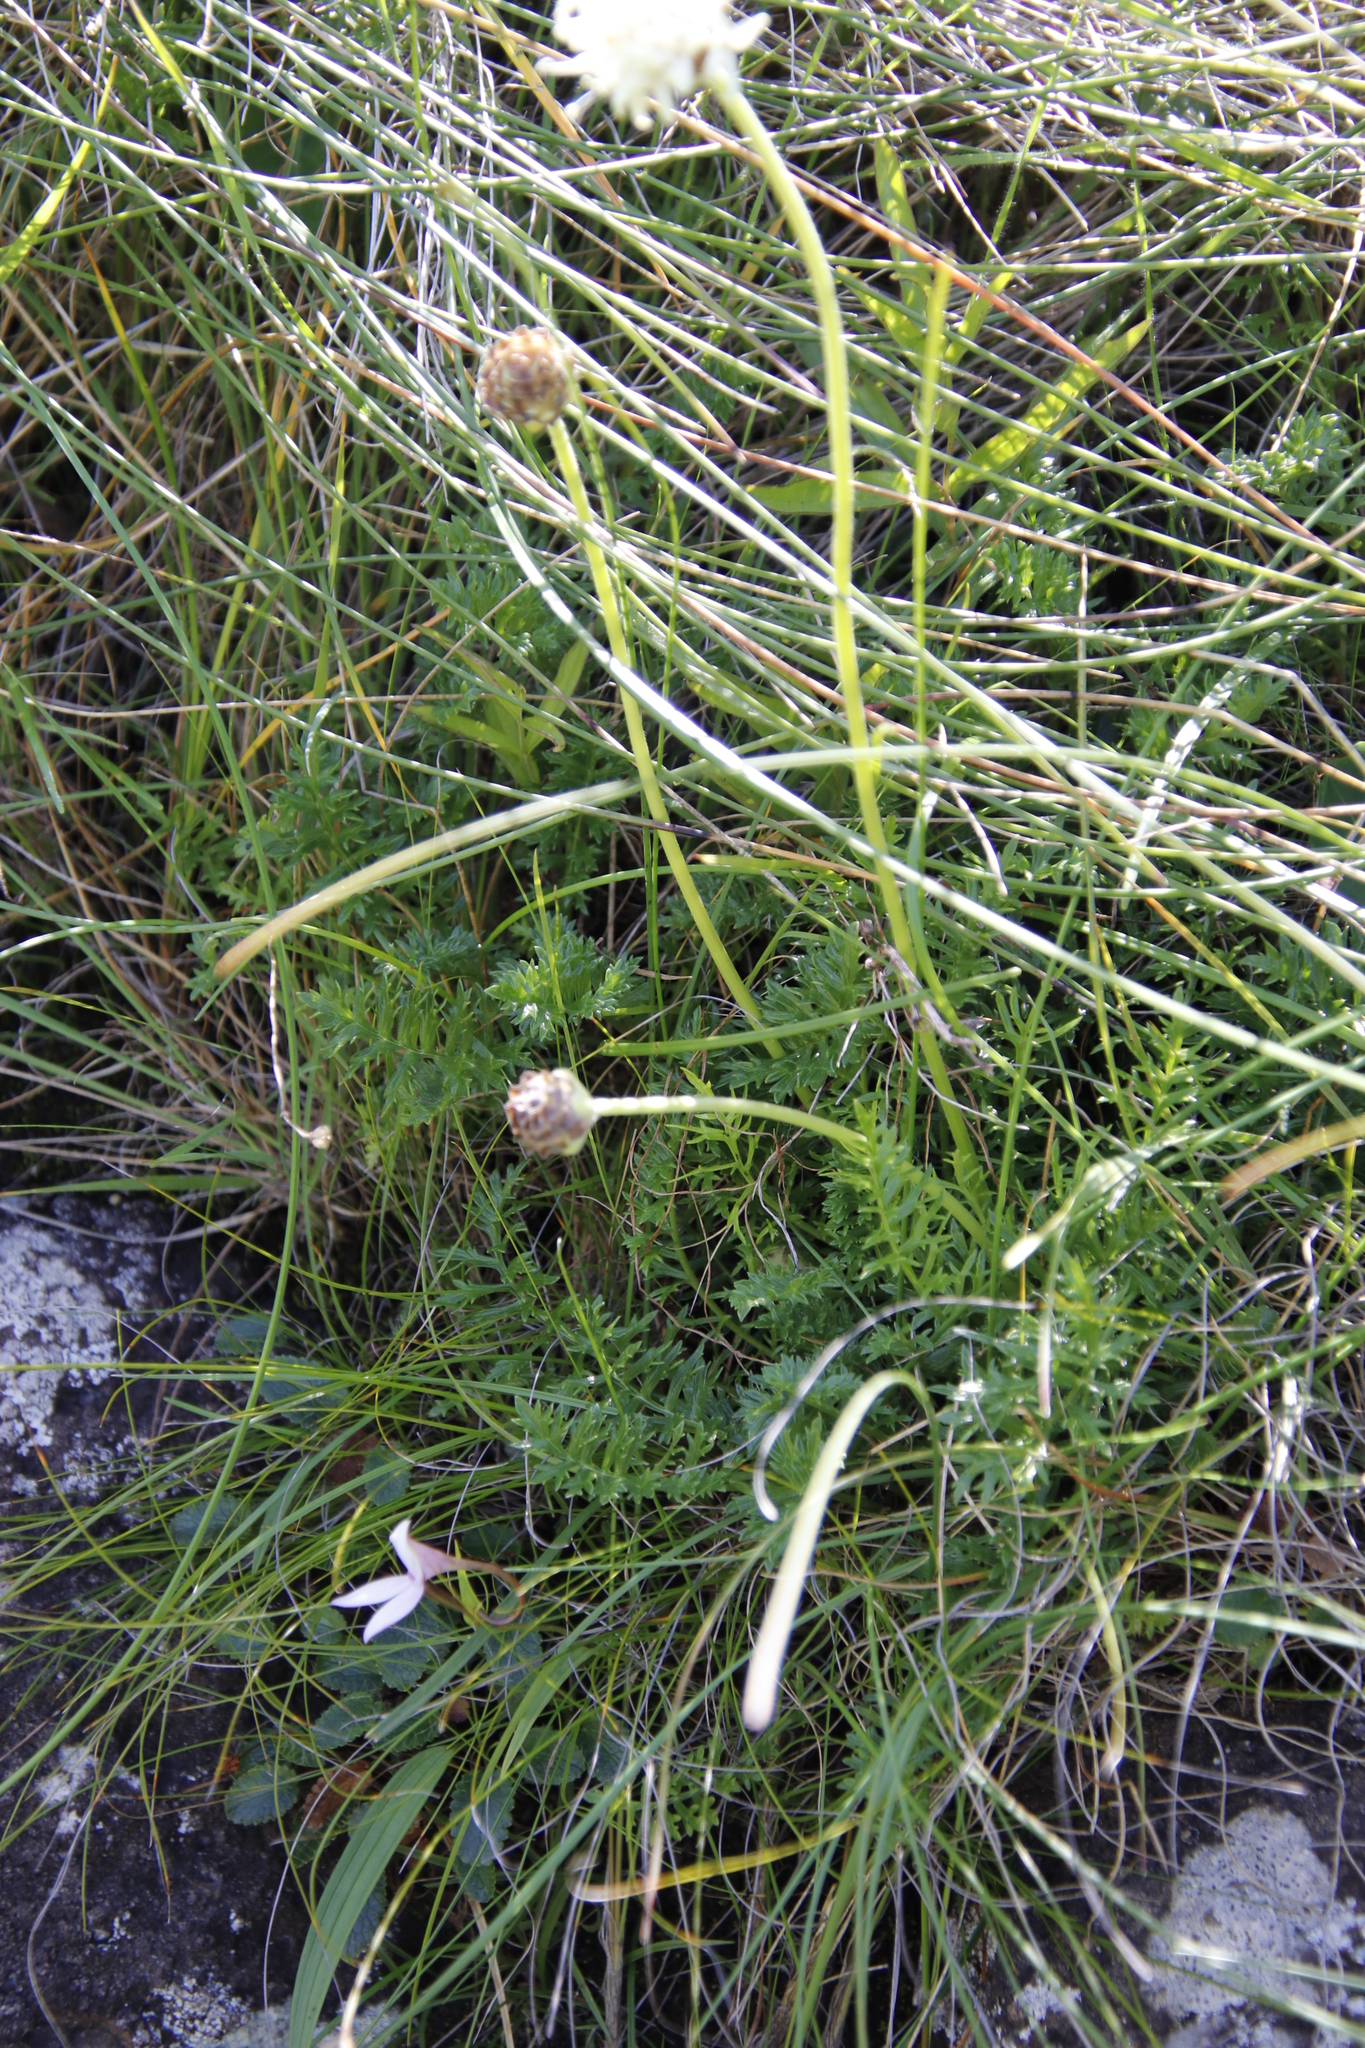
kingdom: Plantae
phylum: Tracheophyta
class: Magnoliopsida
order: Dipsacales
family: Caprifoliaceae
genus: Cephalaria
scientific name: Cephalaria galpiniana
